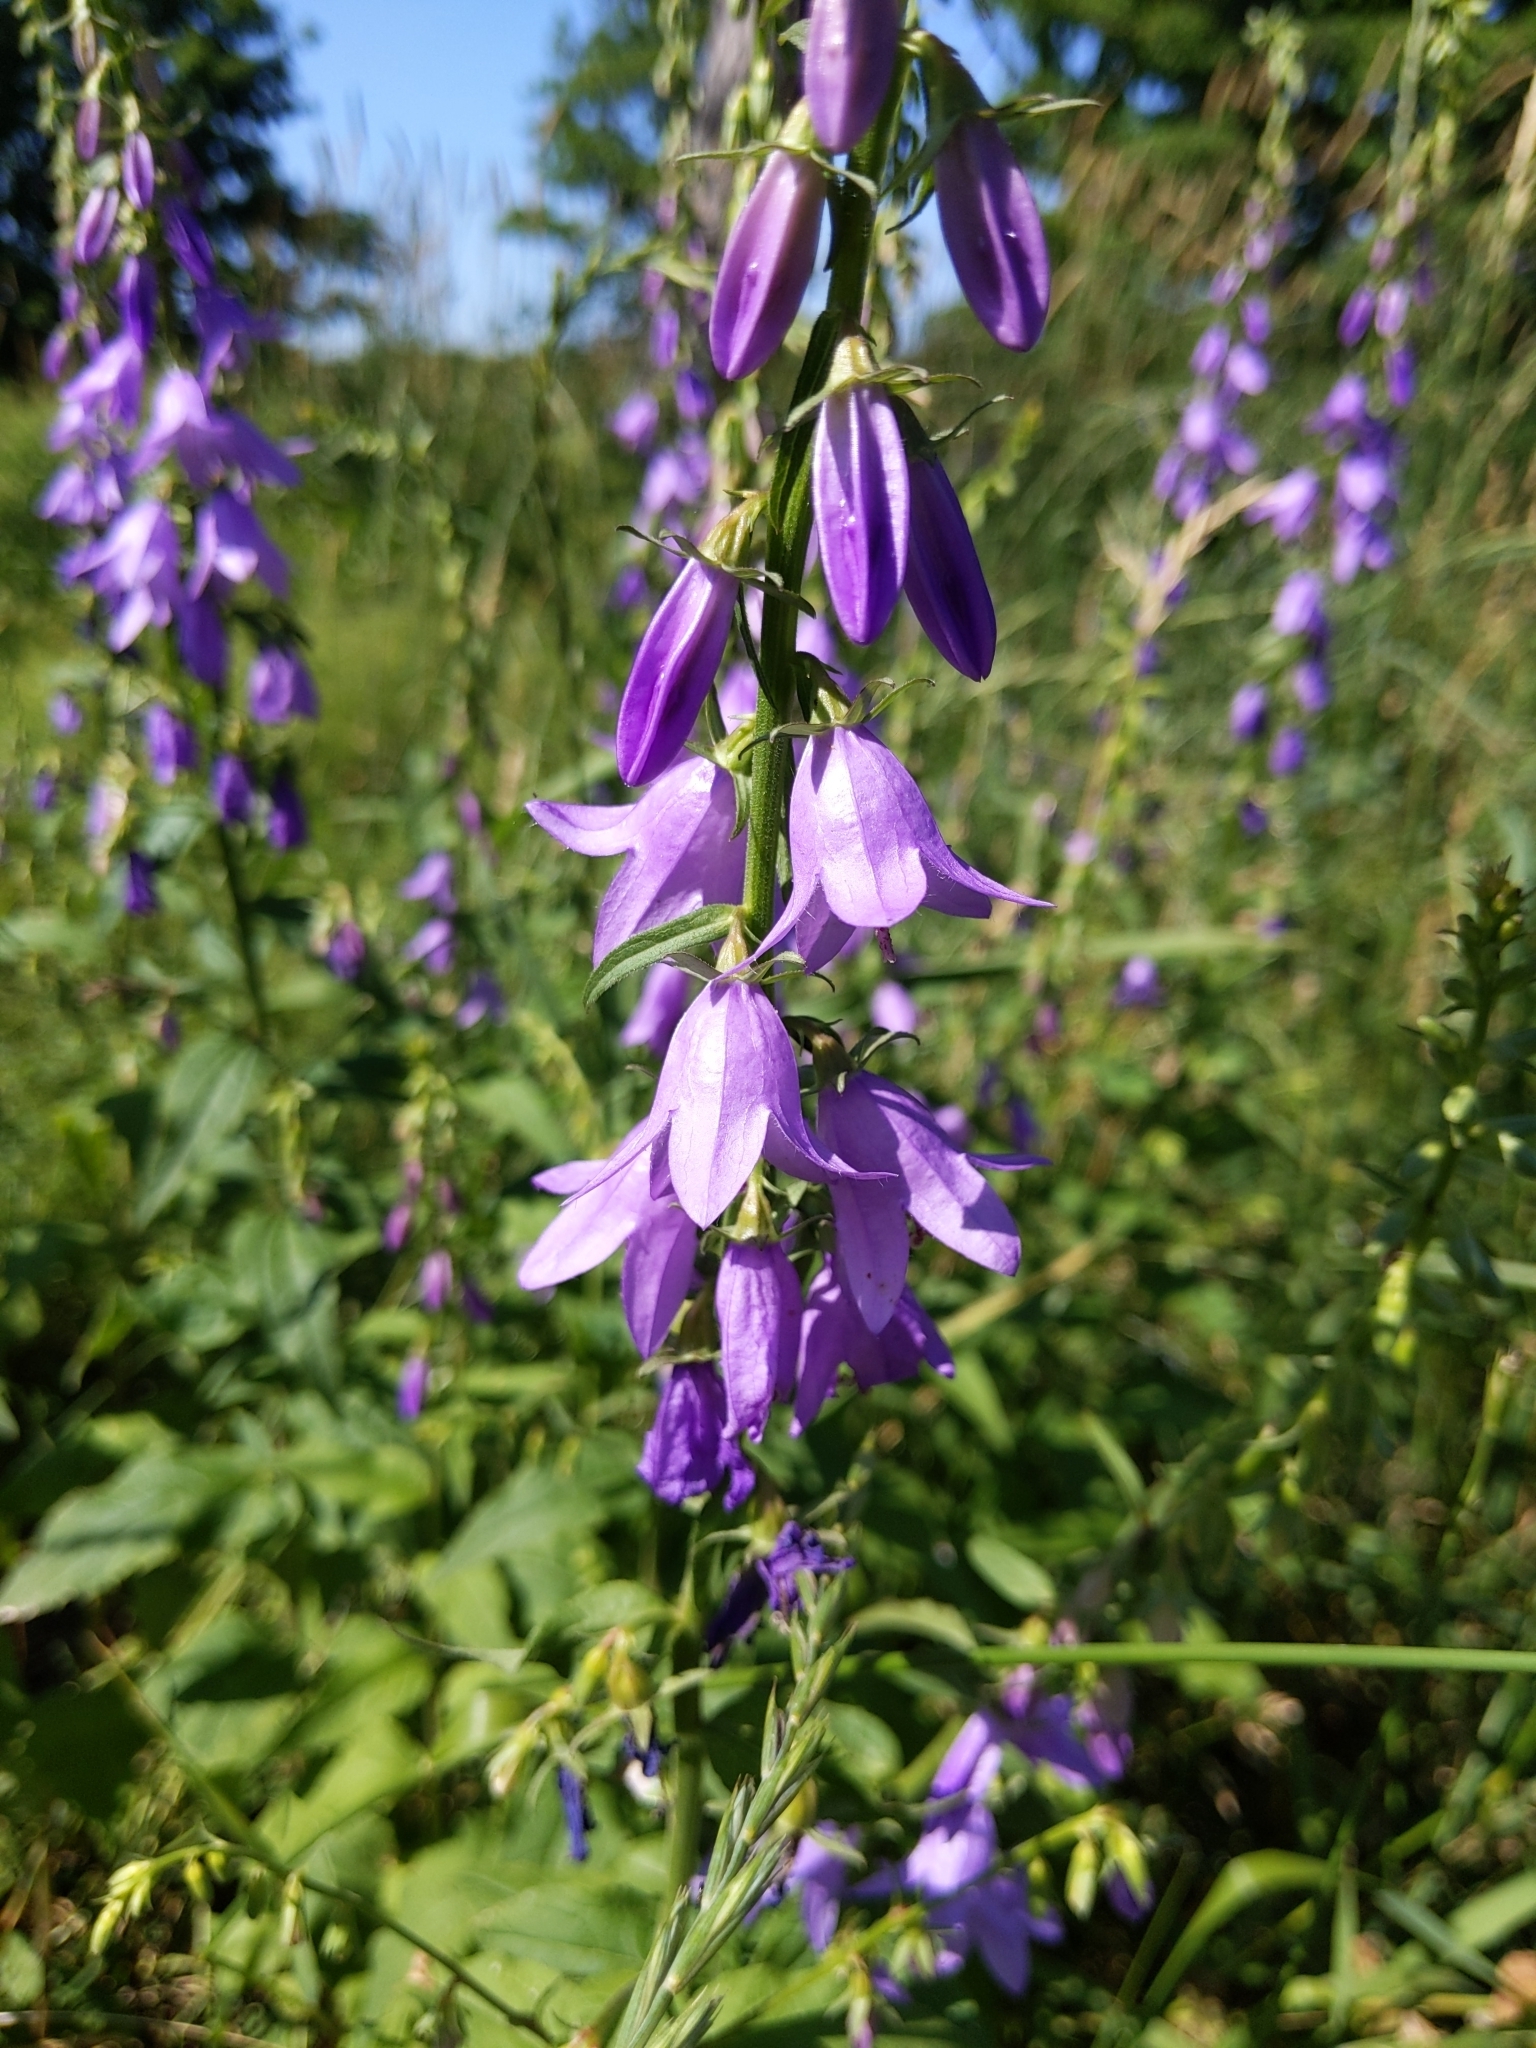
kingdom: Plantae
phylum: Tracheophyta
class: Magnoliopsida
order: Asterales
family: Campanulaceae
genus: Campanula
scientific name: Campanula rapunculoides
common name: Creeping bellflower
